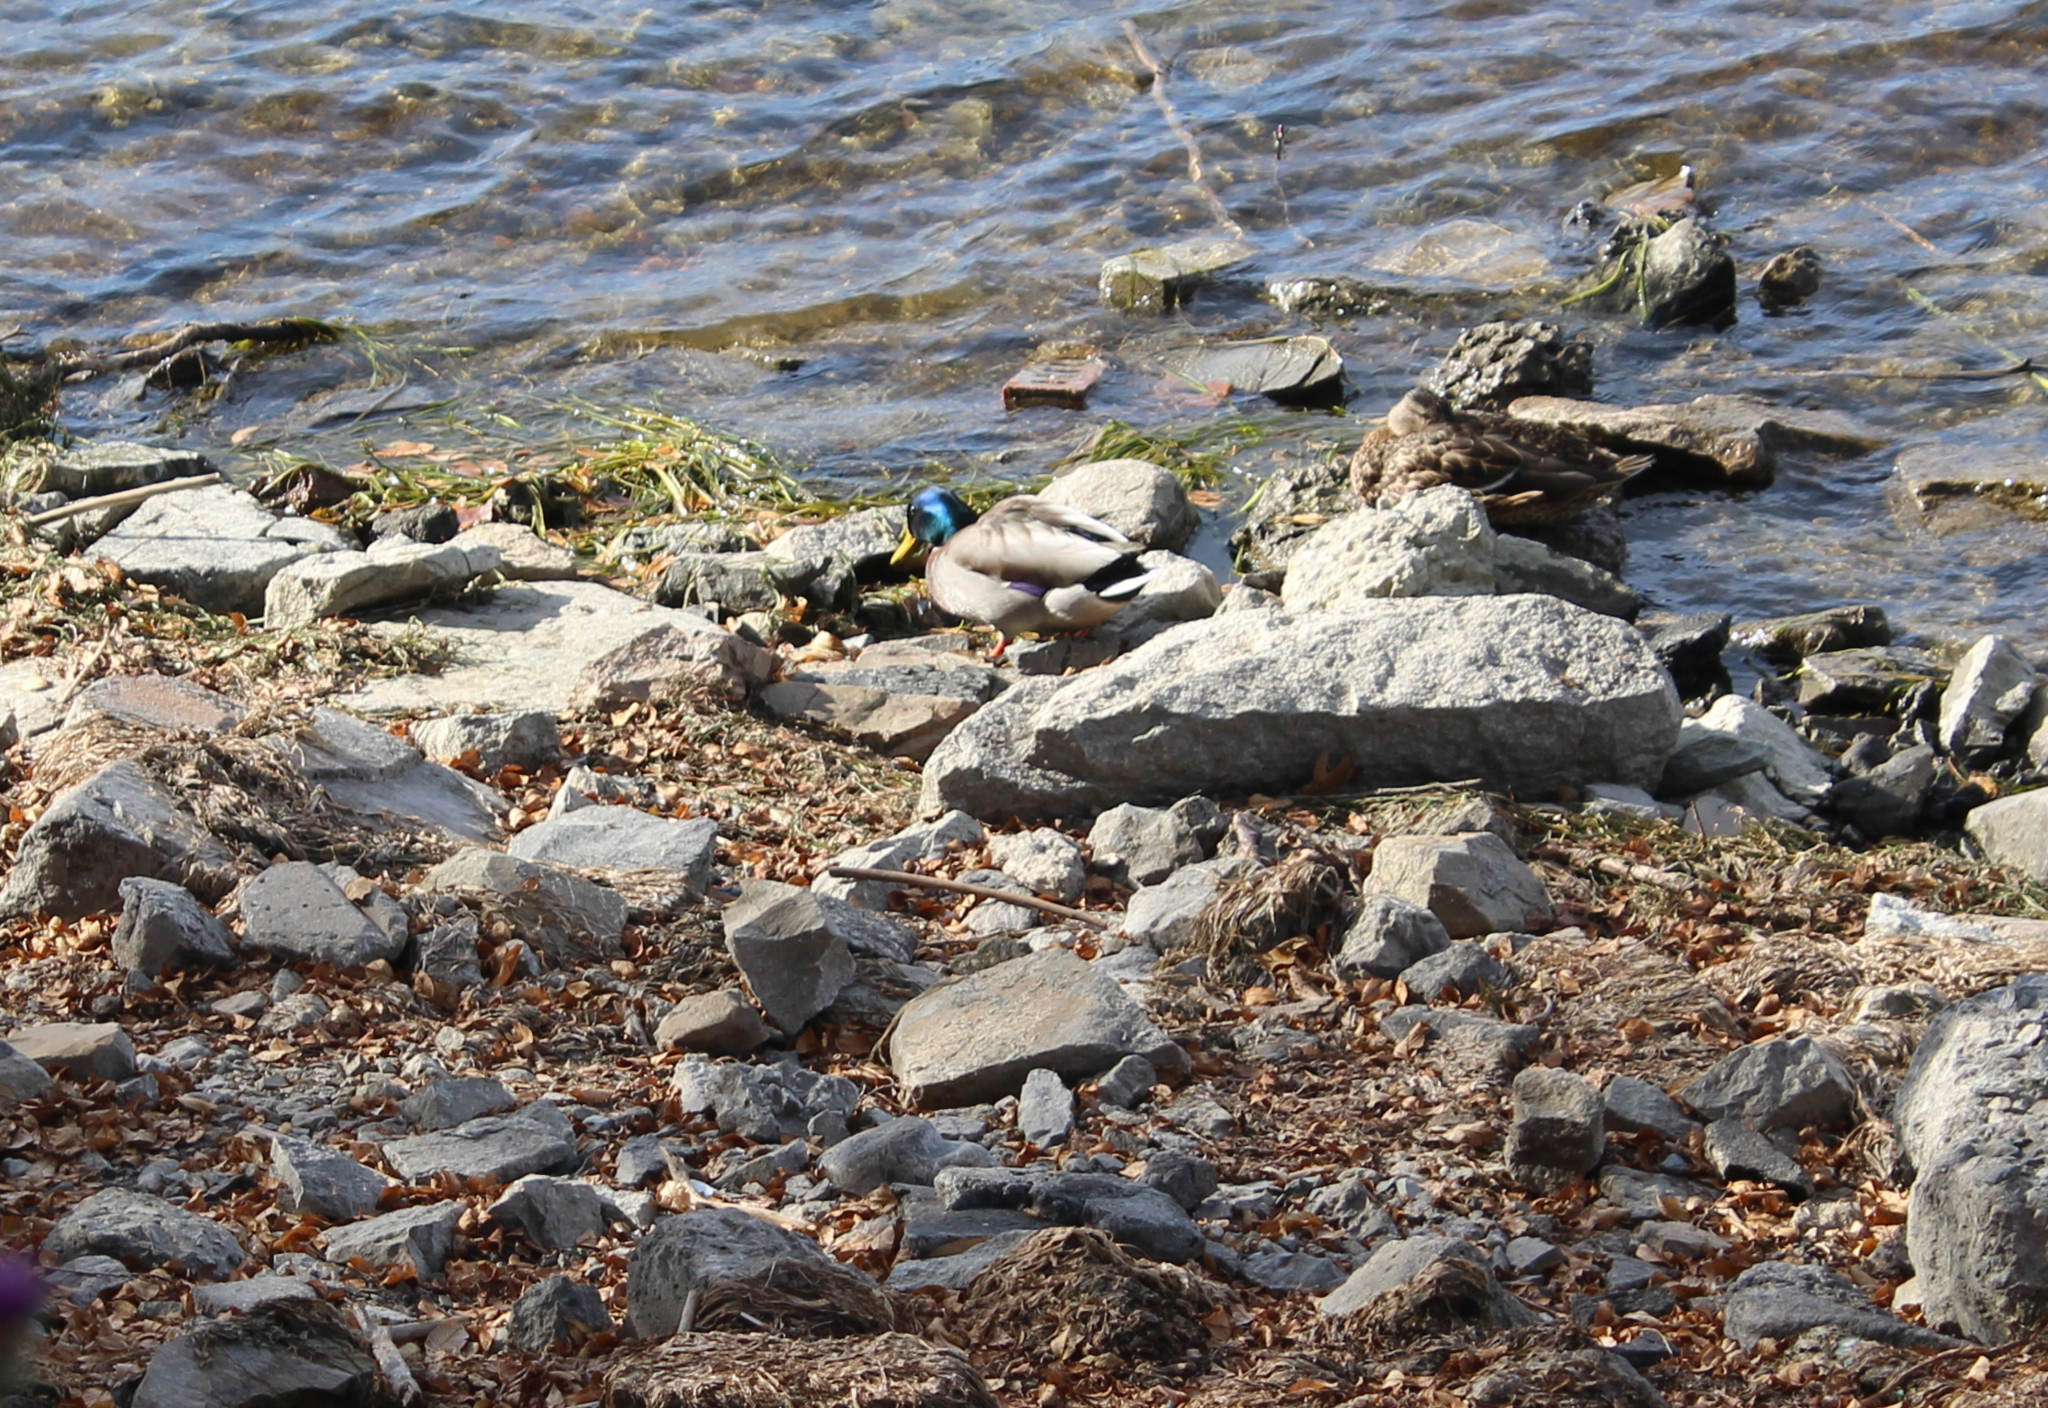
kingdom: Animalia
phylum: Chordata
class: Aves
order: Anseriformes
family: Anatidae
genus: Anas
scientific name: Anas platyrhynchos
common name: Mallard
